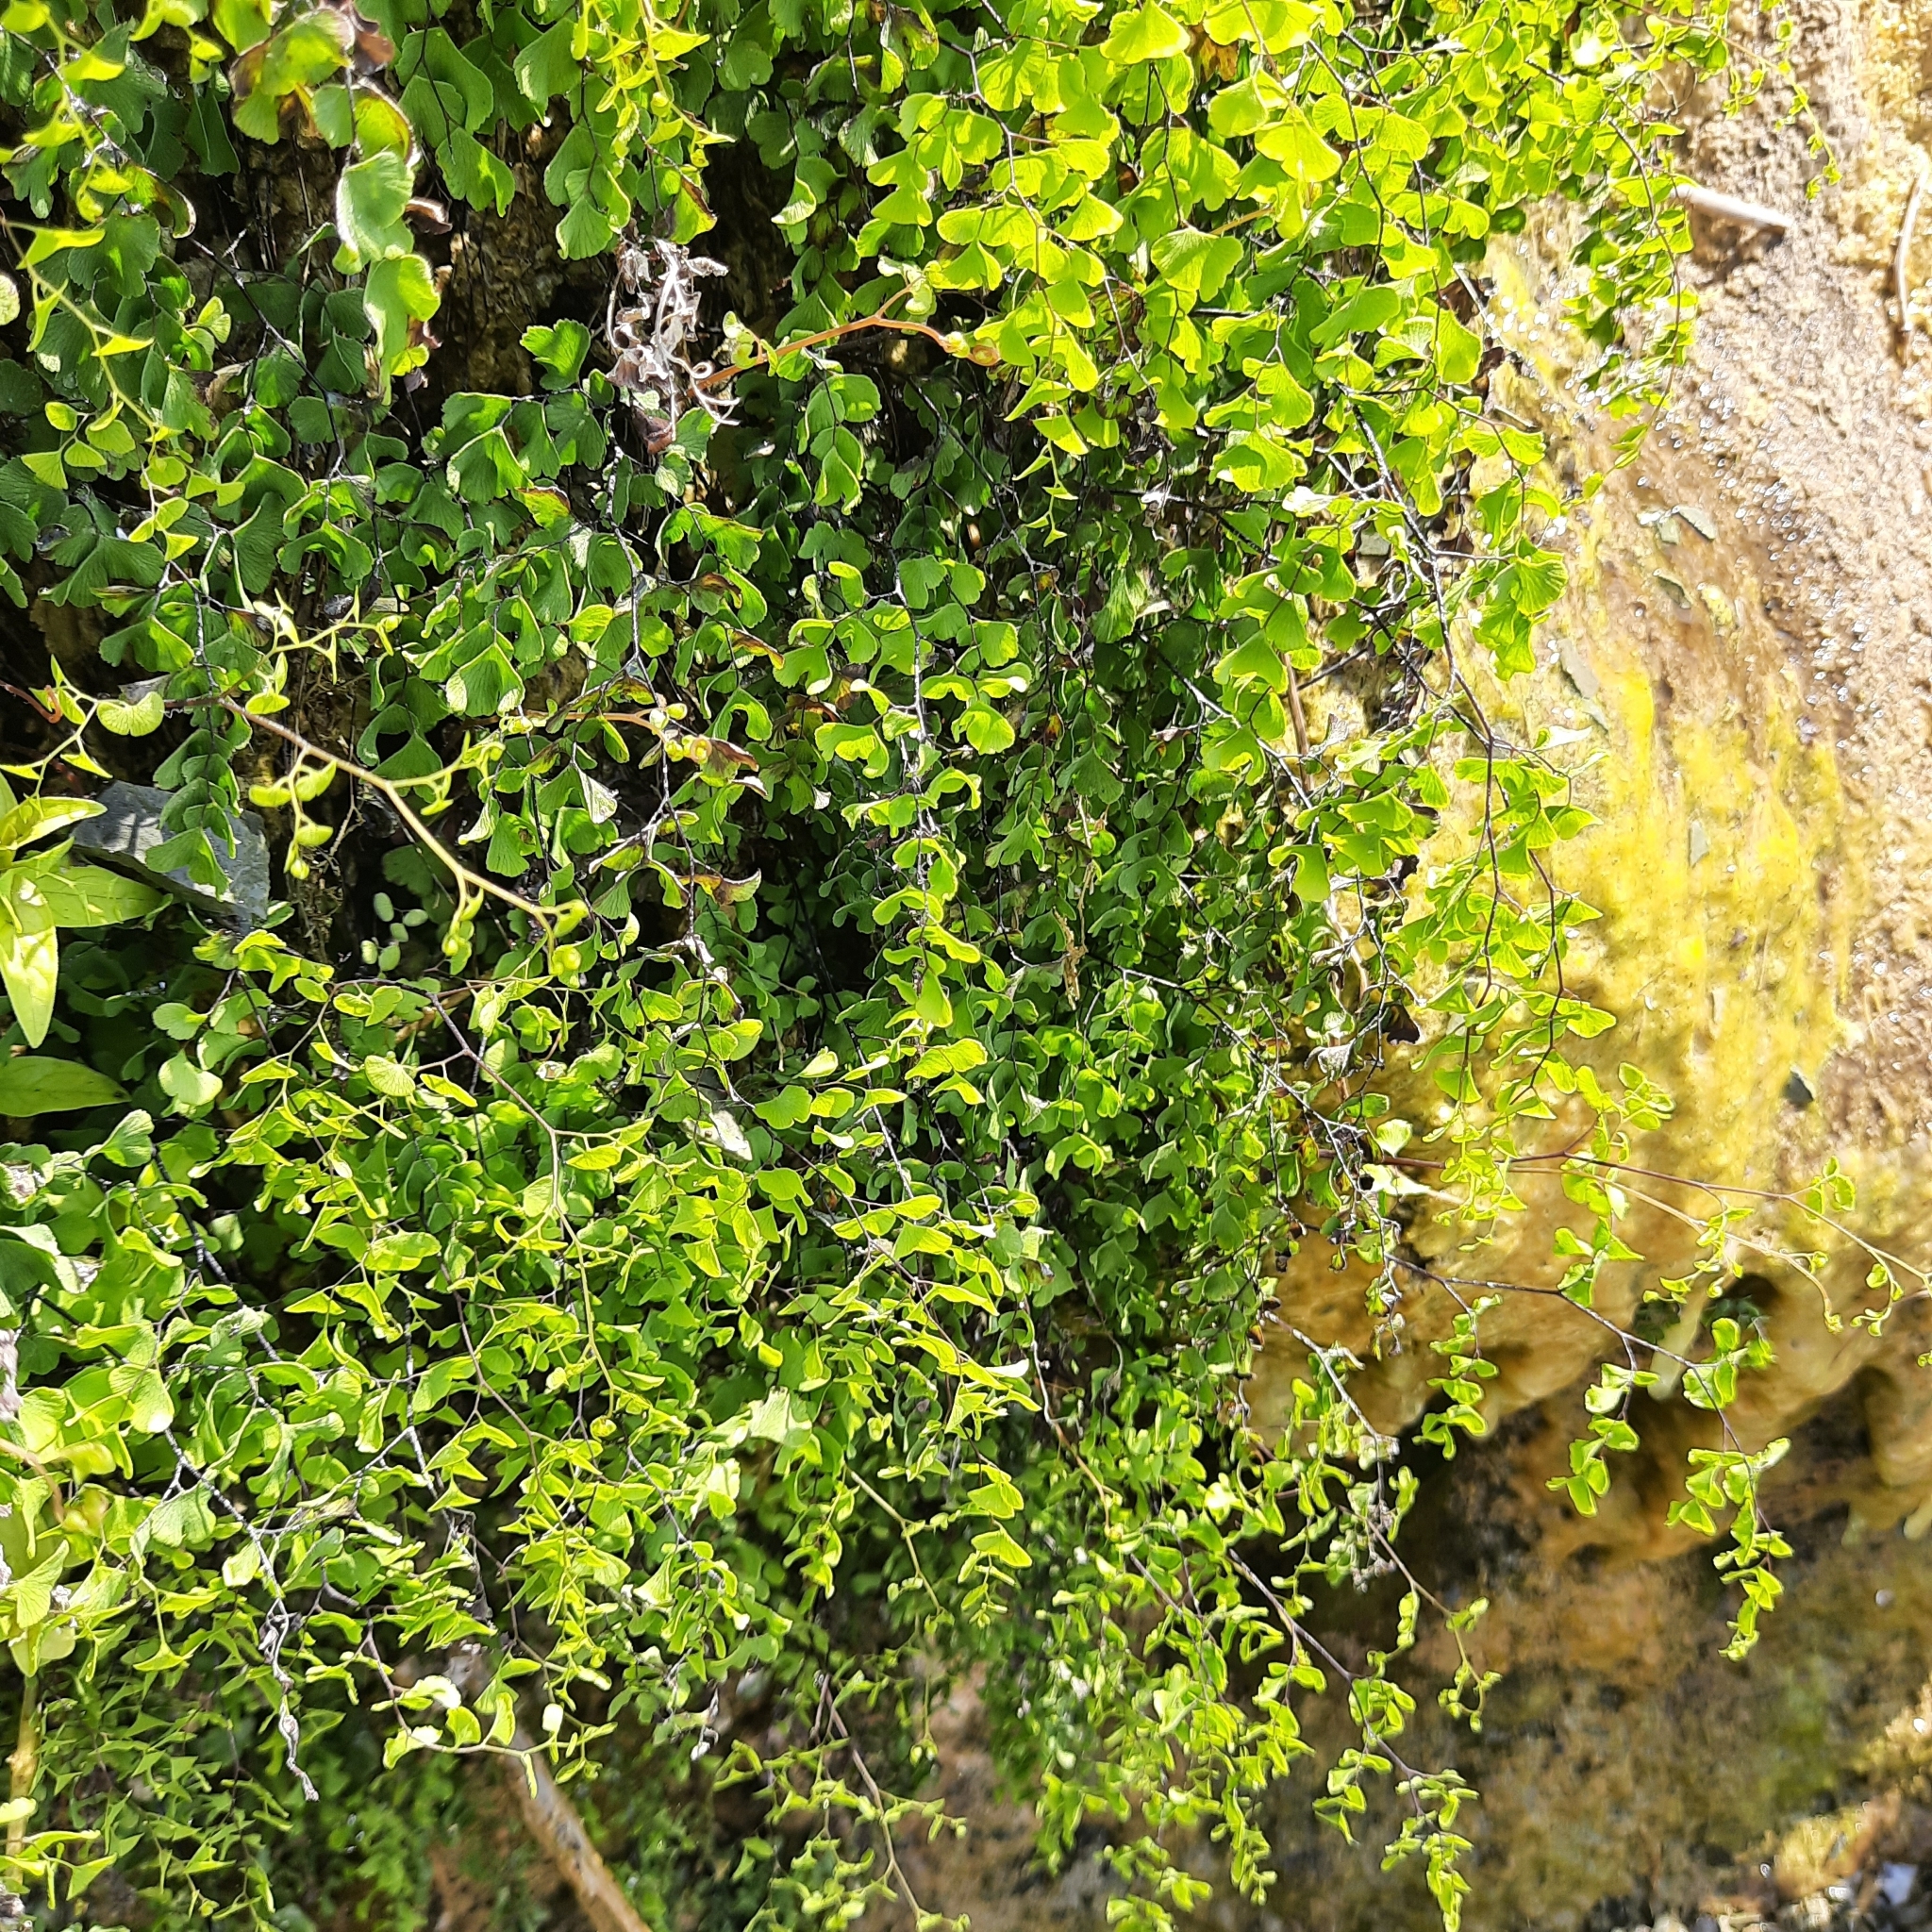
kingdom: Plantae
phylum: Tracheophyta
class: Polypodiopsida
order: Polypodiales
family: Pteridaceae
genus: Adiantum
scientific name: Adiantum capillus-veneris
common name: Maidenhair fern
